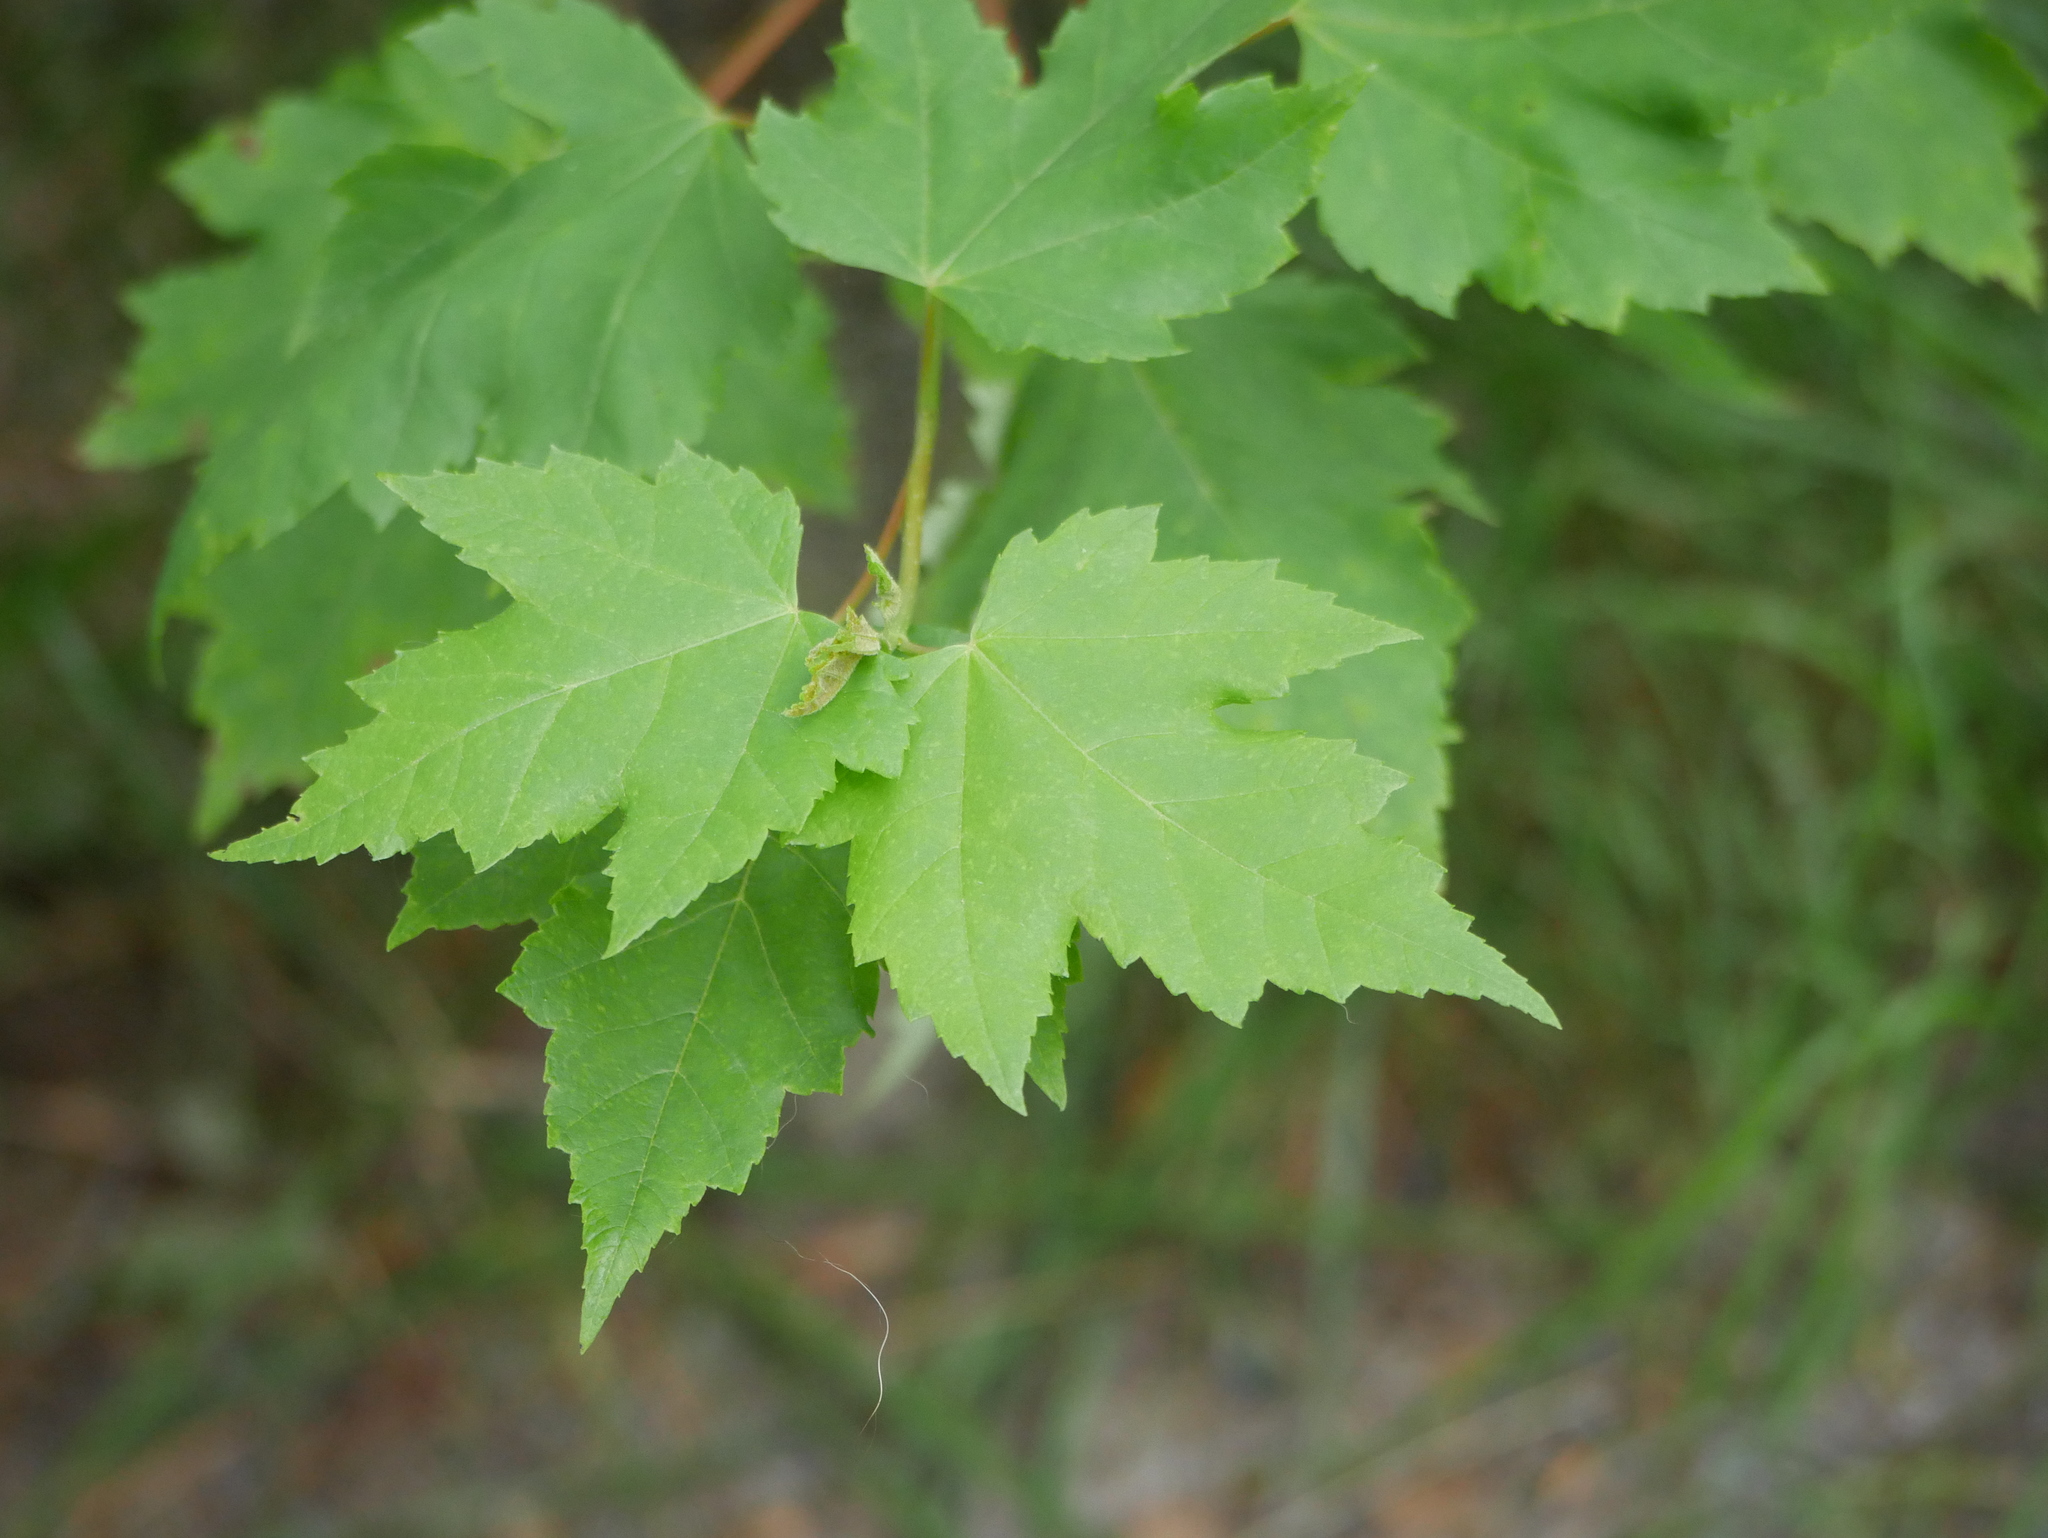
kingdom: Plantae
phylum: Tracheophyta
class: Magnoliopsida
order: Sapindales
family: Sapindaceae
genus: Acer
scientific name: Acer rubrum
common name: Red maple
